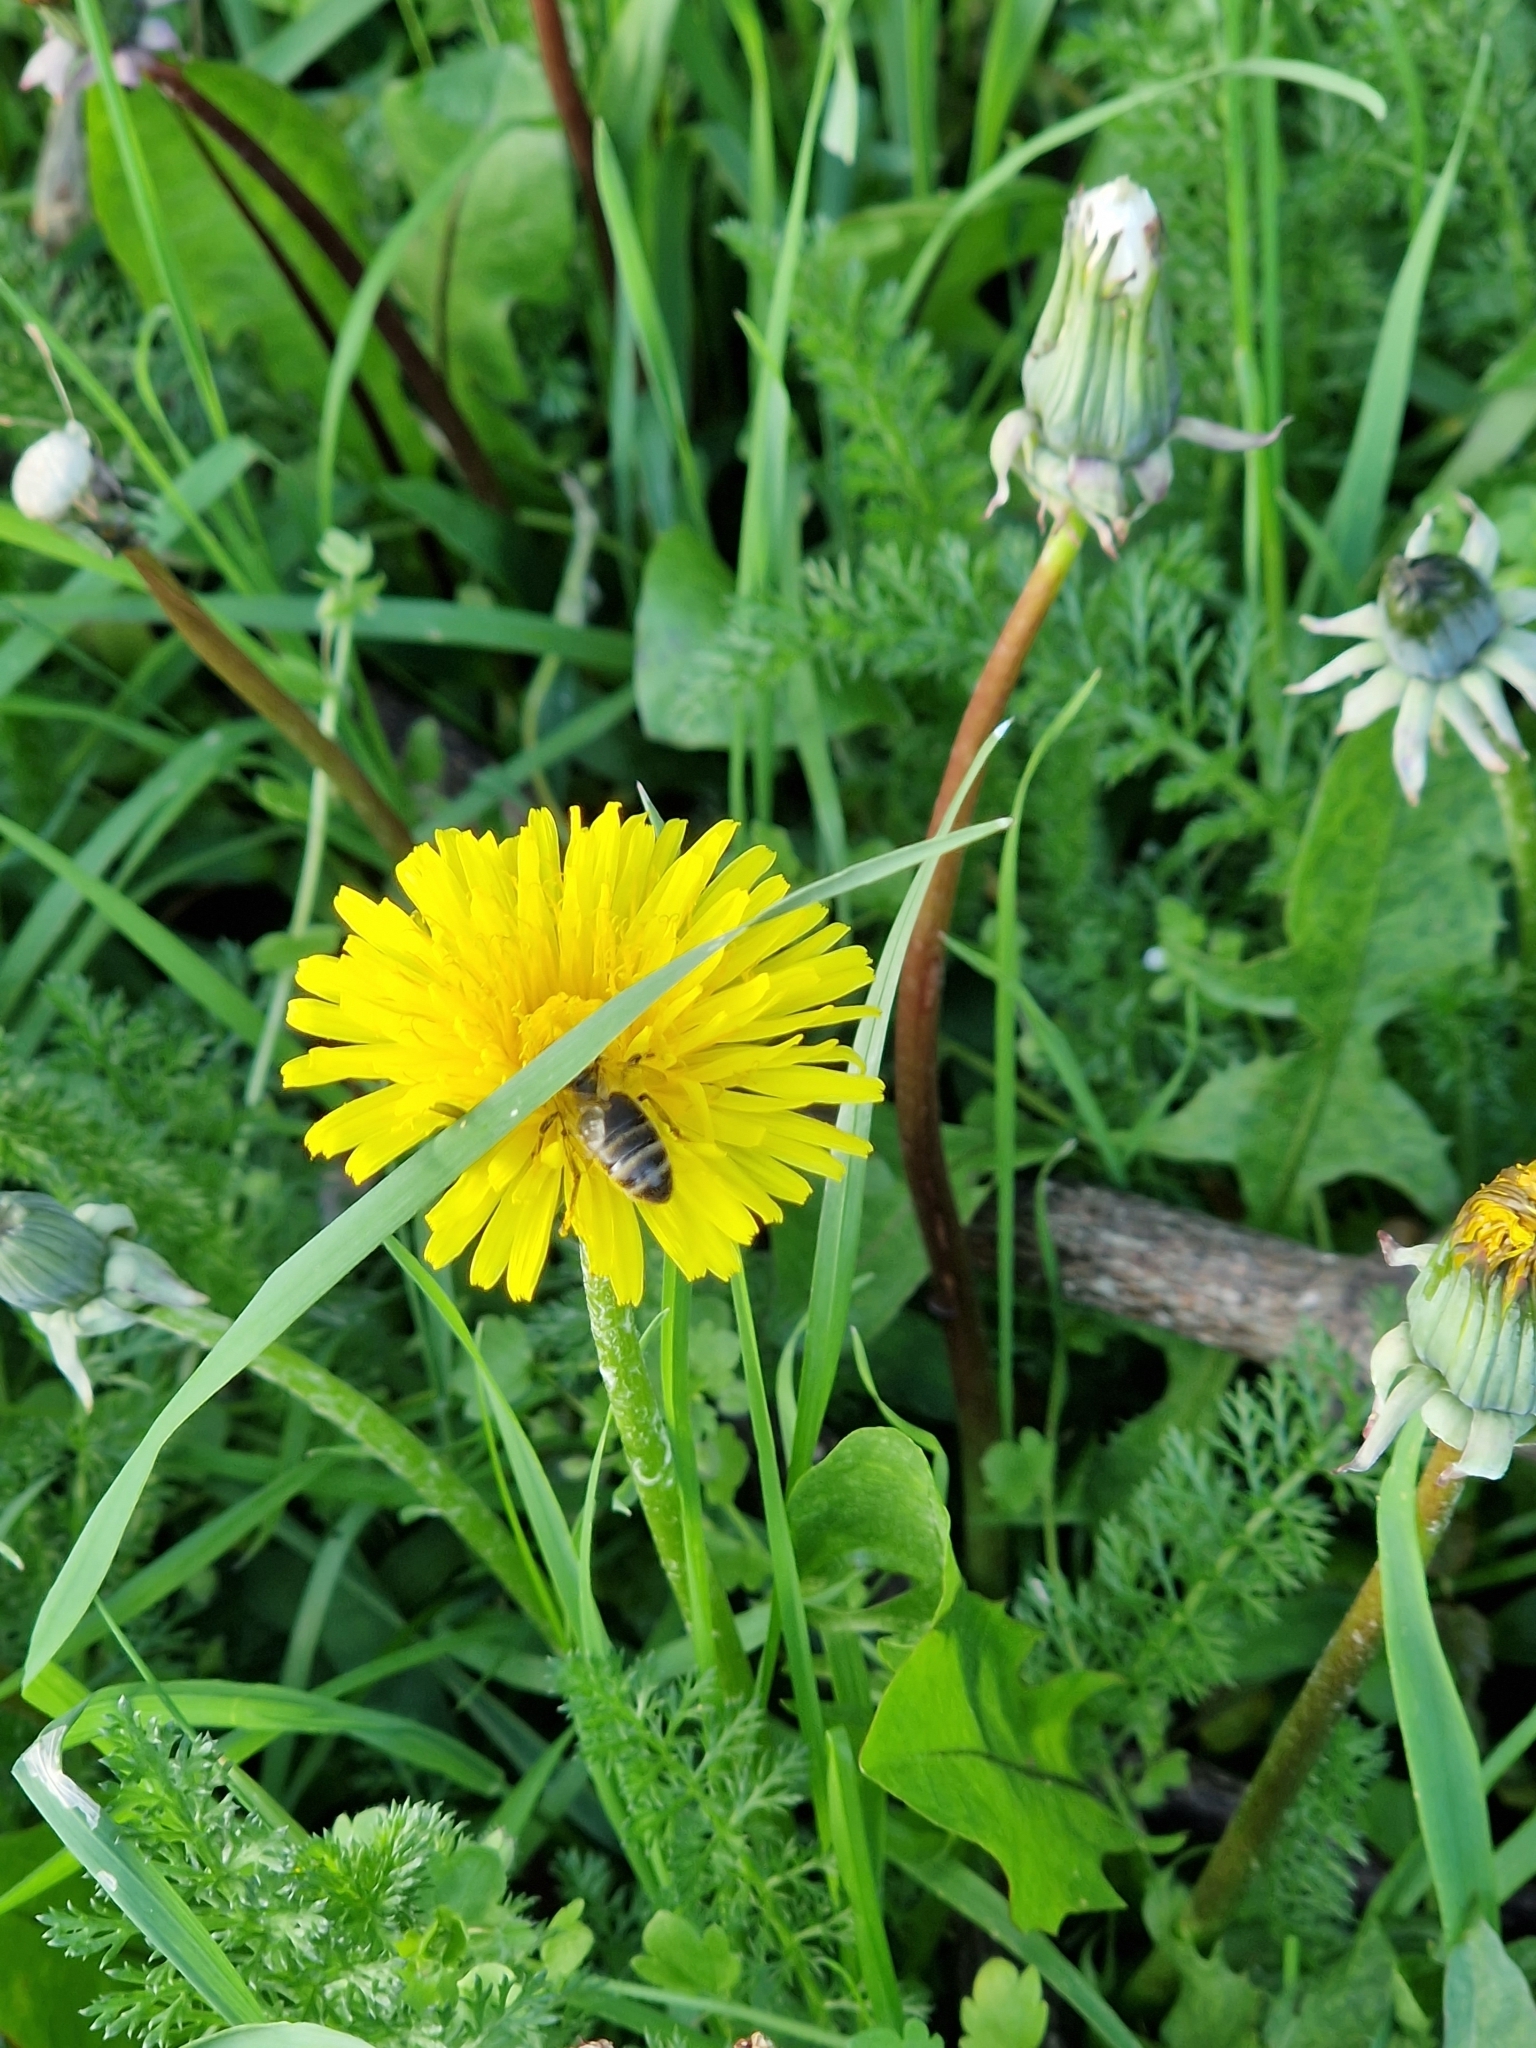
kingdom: Animalia
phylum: Arthropoda
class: Insecta
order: Hymenoptera
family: Apidae
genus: Apis
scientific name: Apis mellifera
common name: Honey bee
